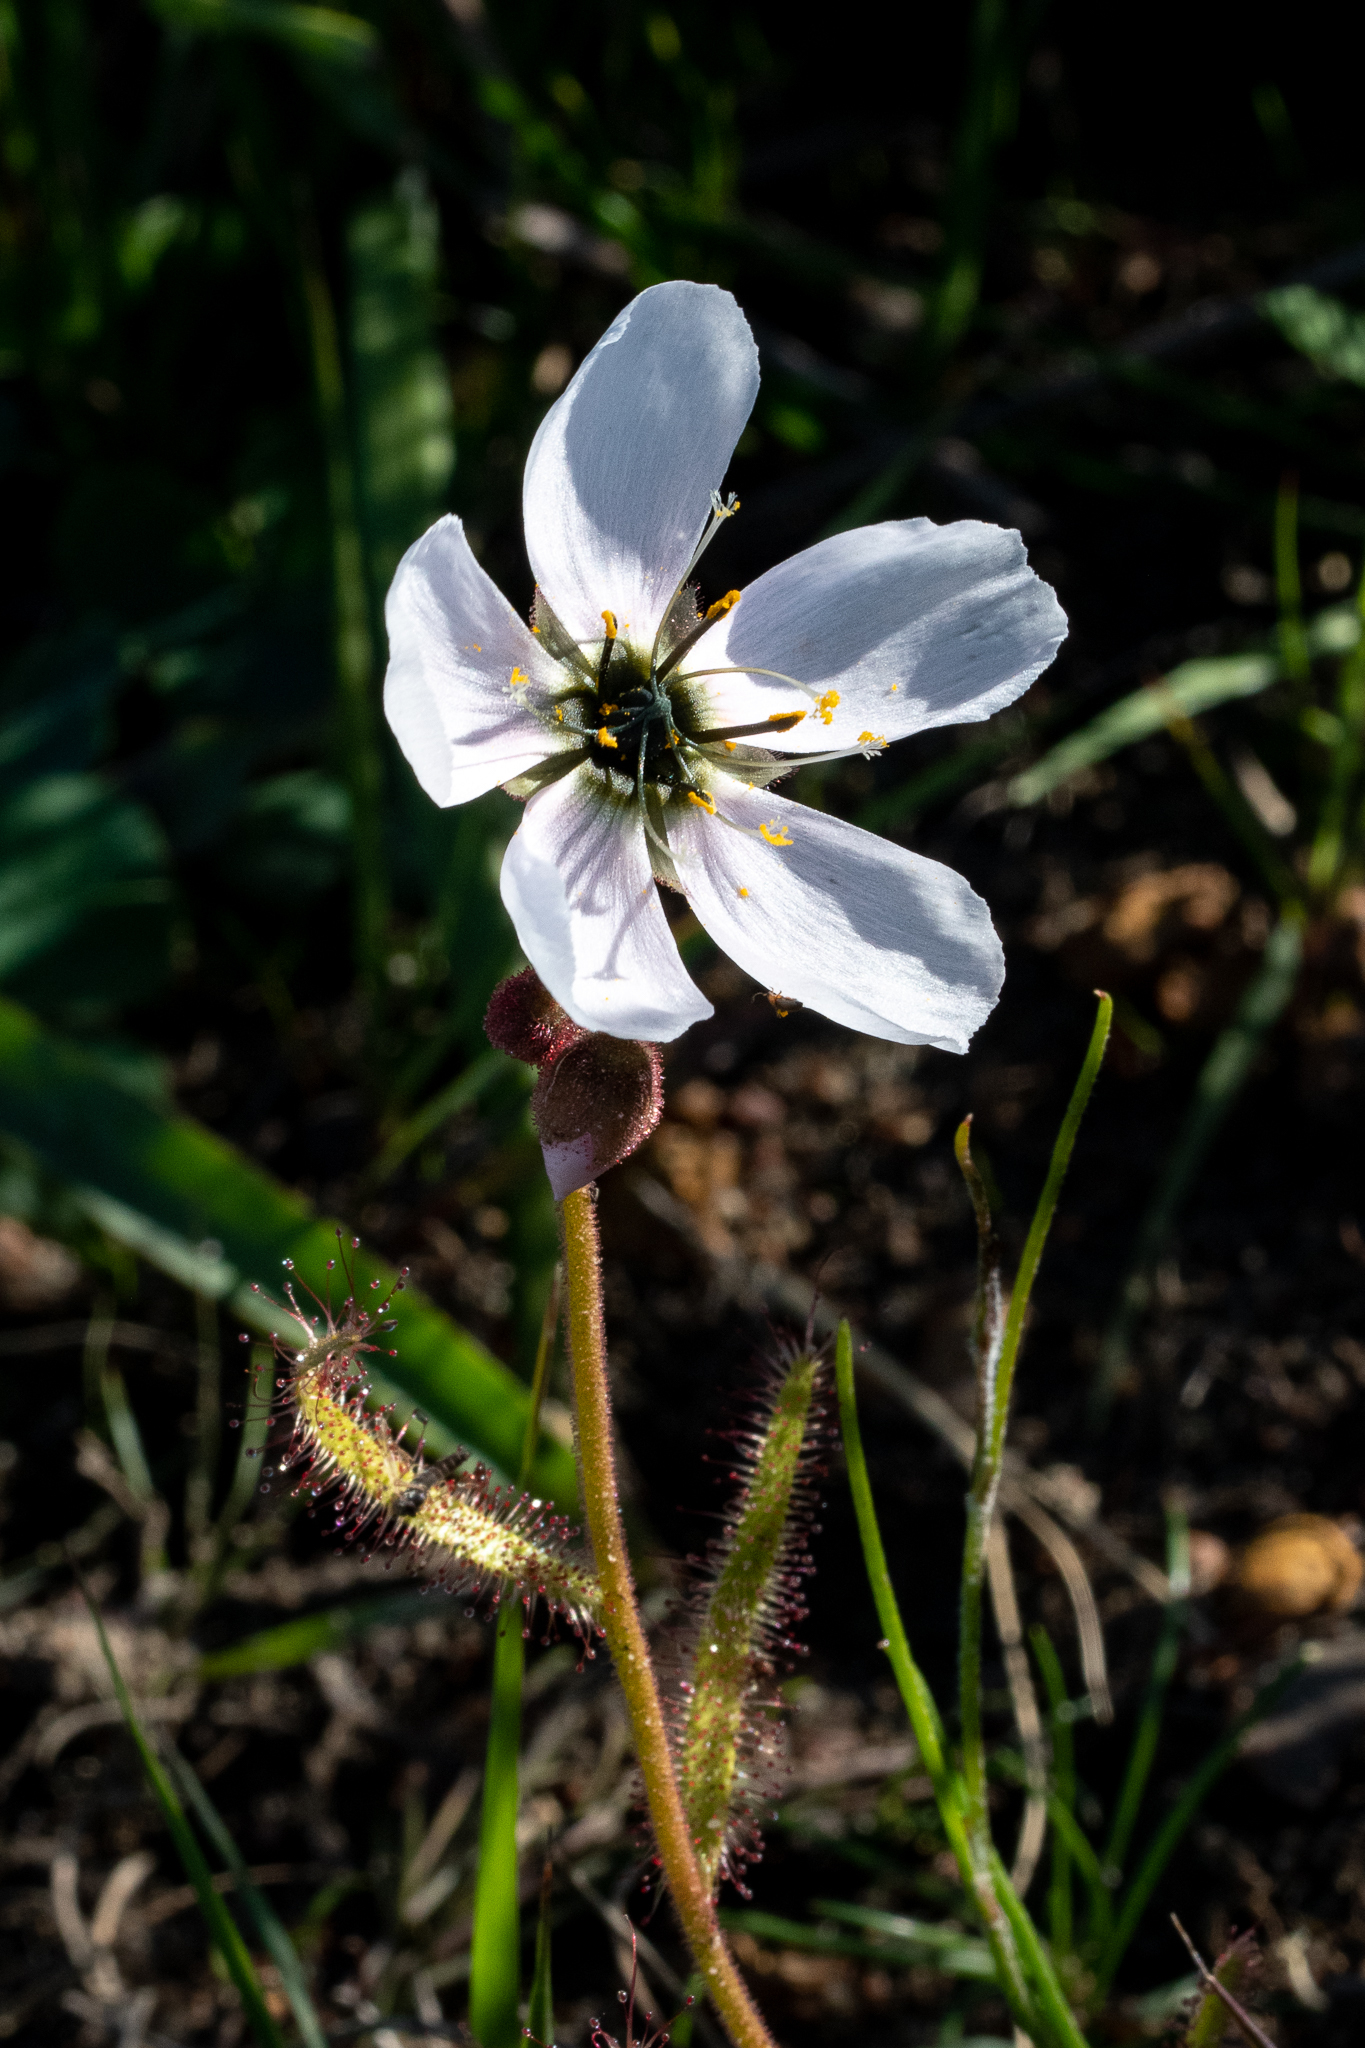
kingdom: Plantae
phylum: Tracheophyta
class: Magnoliopsida
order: Caryophyllales
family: Droseraceae
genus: Drosera
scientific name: Drosera cistiflora
